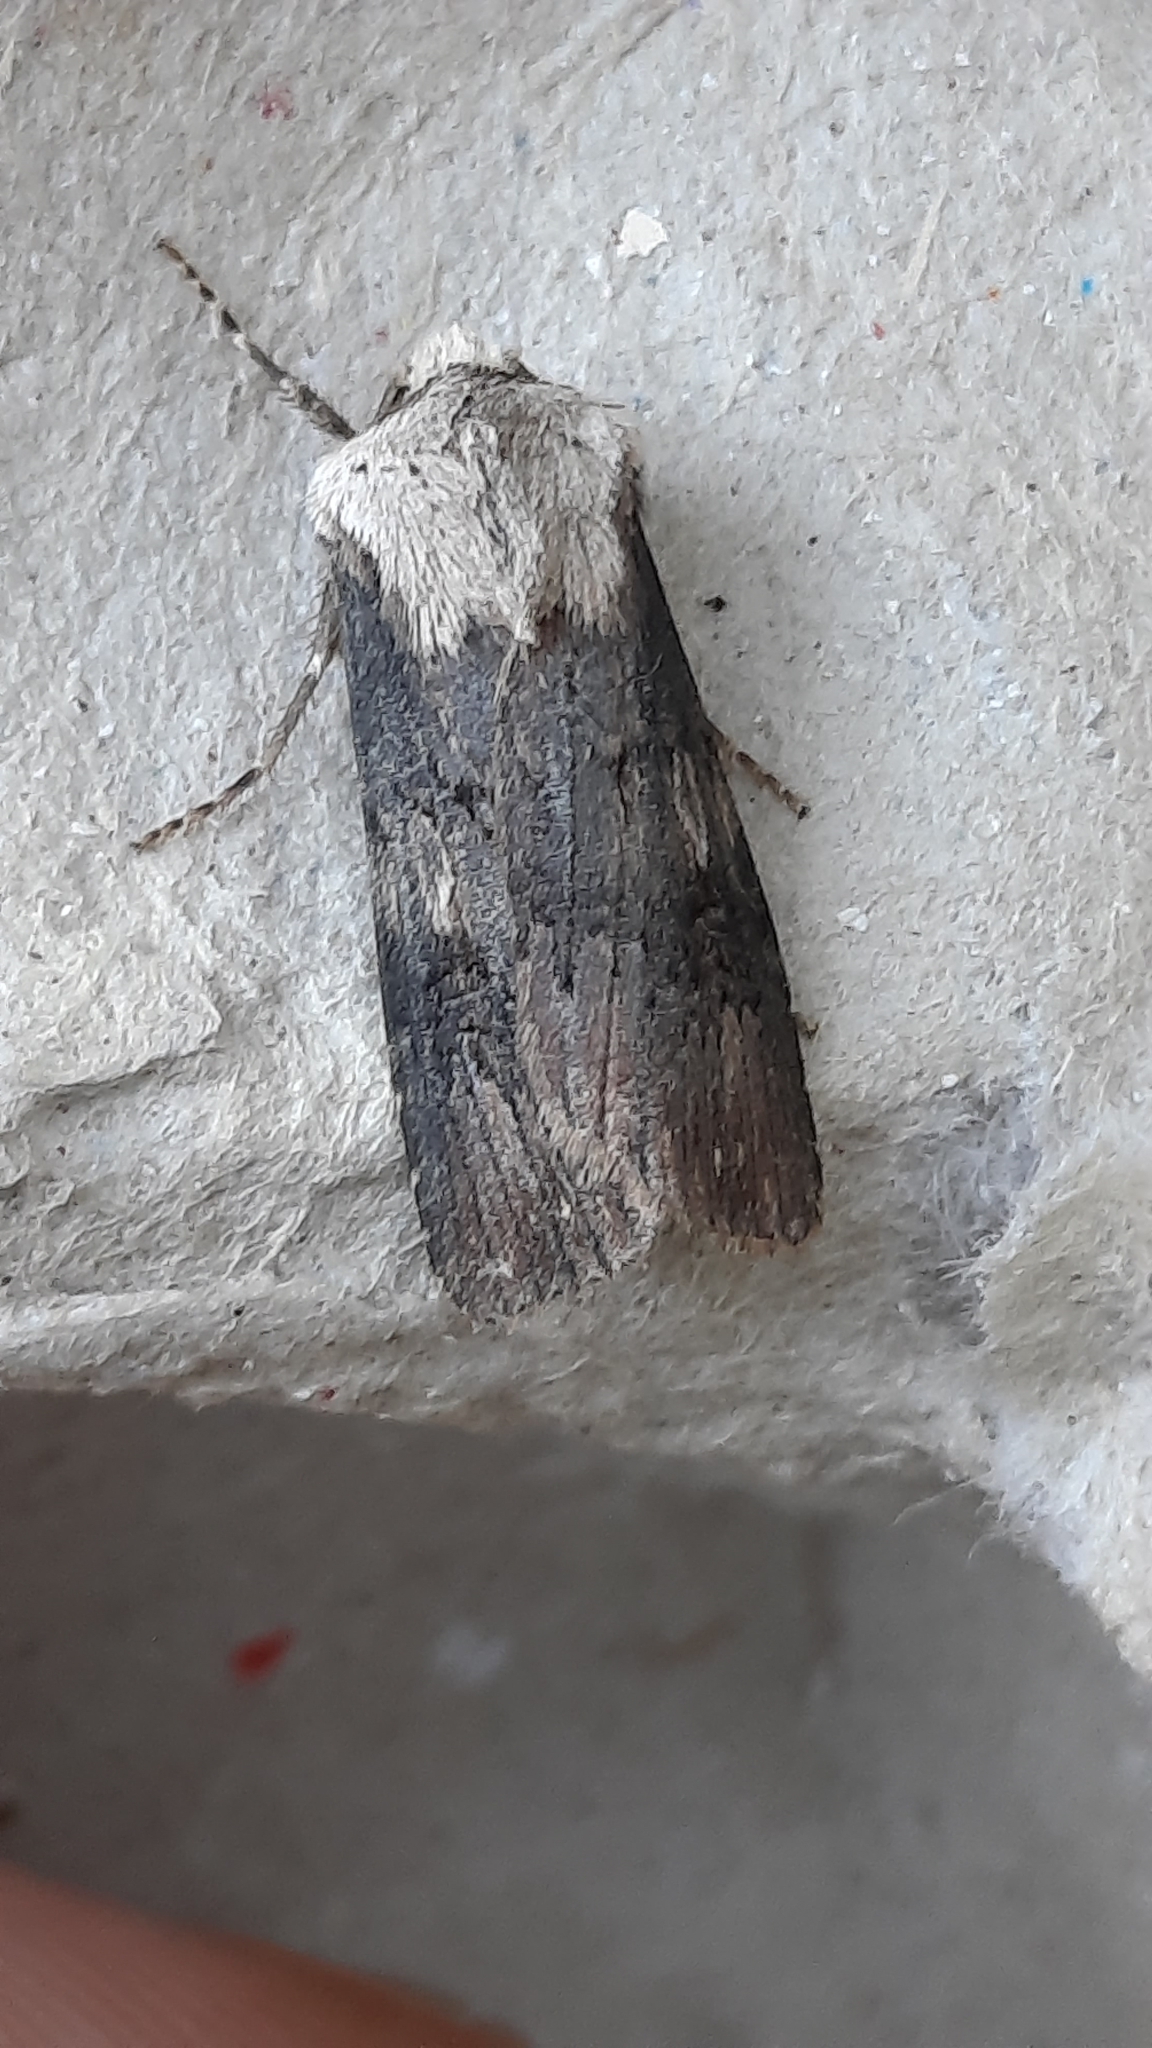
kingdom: Animalia
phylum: Arthropoda
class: Insecta
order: Lepidoptera
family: Noctuidae
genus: Agrotis
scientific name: Agrotis puta
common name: Shuttle-shaped dart
